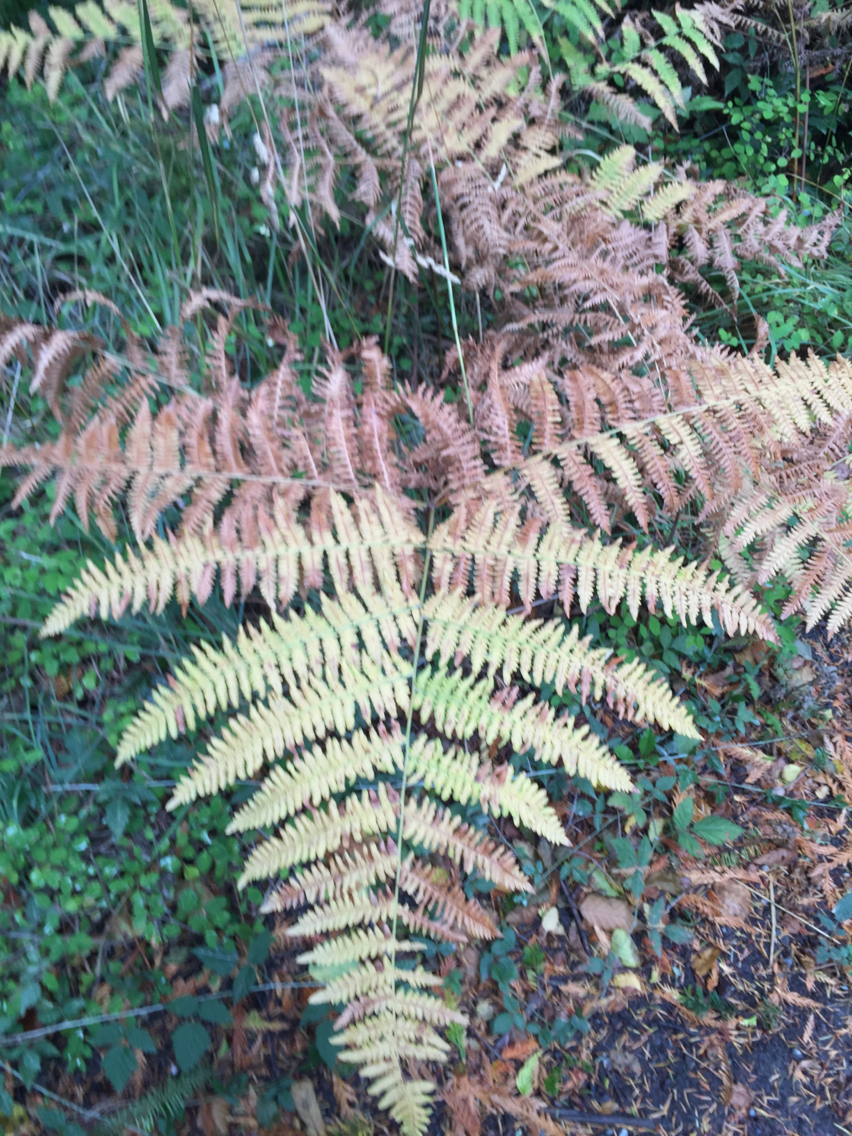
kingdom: Plantae
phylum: Tracheophyta
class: Polypodiopsida
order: Polypodiales
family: Dennstaedtiaceae
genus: Pteridium
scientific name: Pteridium aquilinum
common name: Bracken
